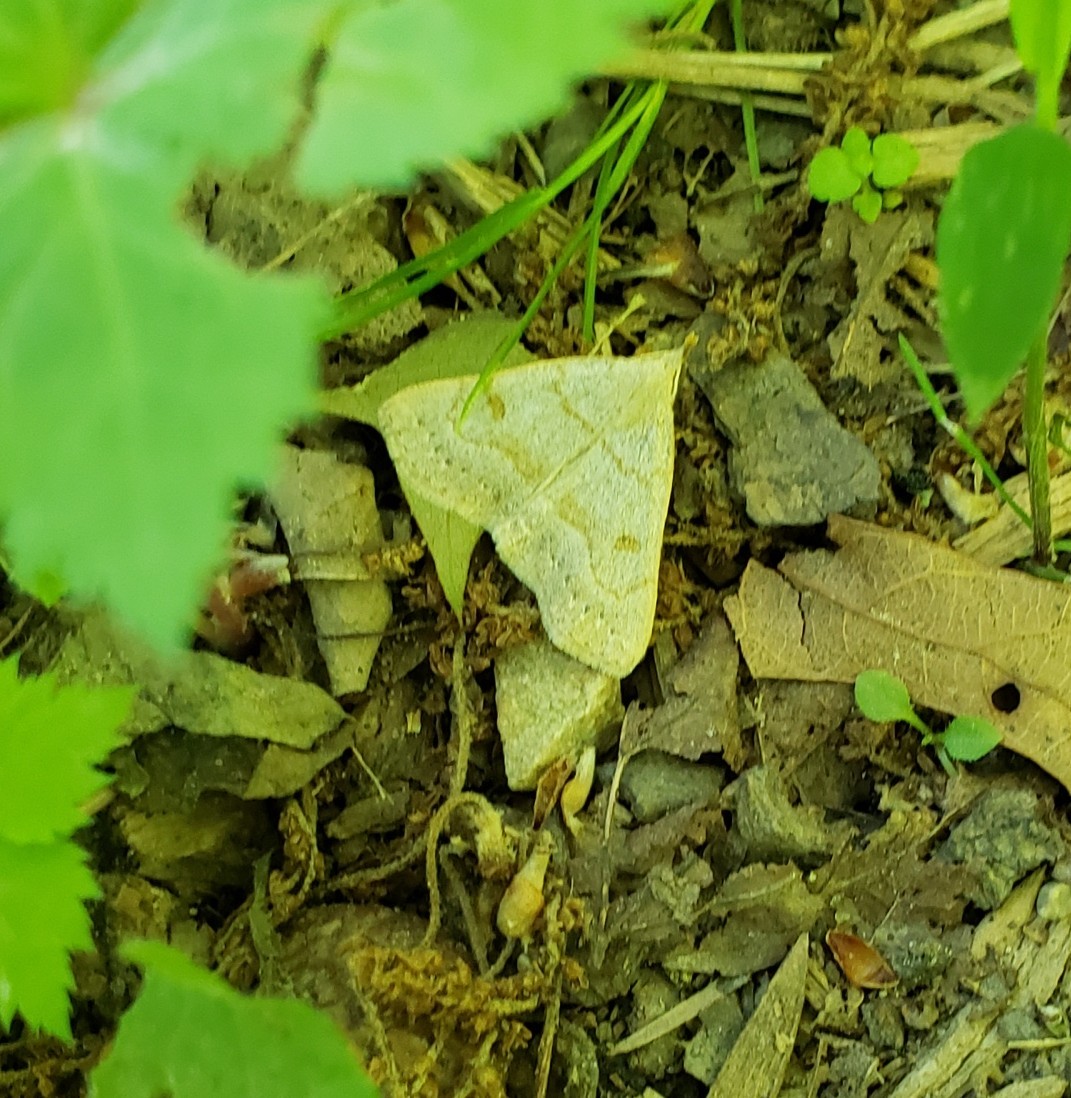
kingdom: Animalia
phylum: Arthropoda
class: Insecta
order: Lepidoptera
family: Erebidae
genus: Macrochilo
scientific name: Macrochilo morbidalis
